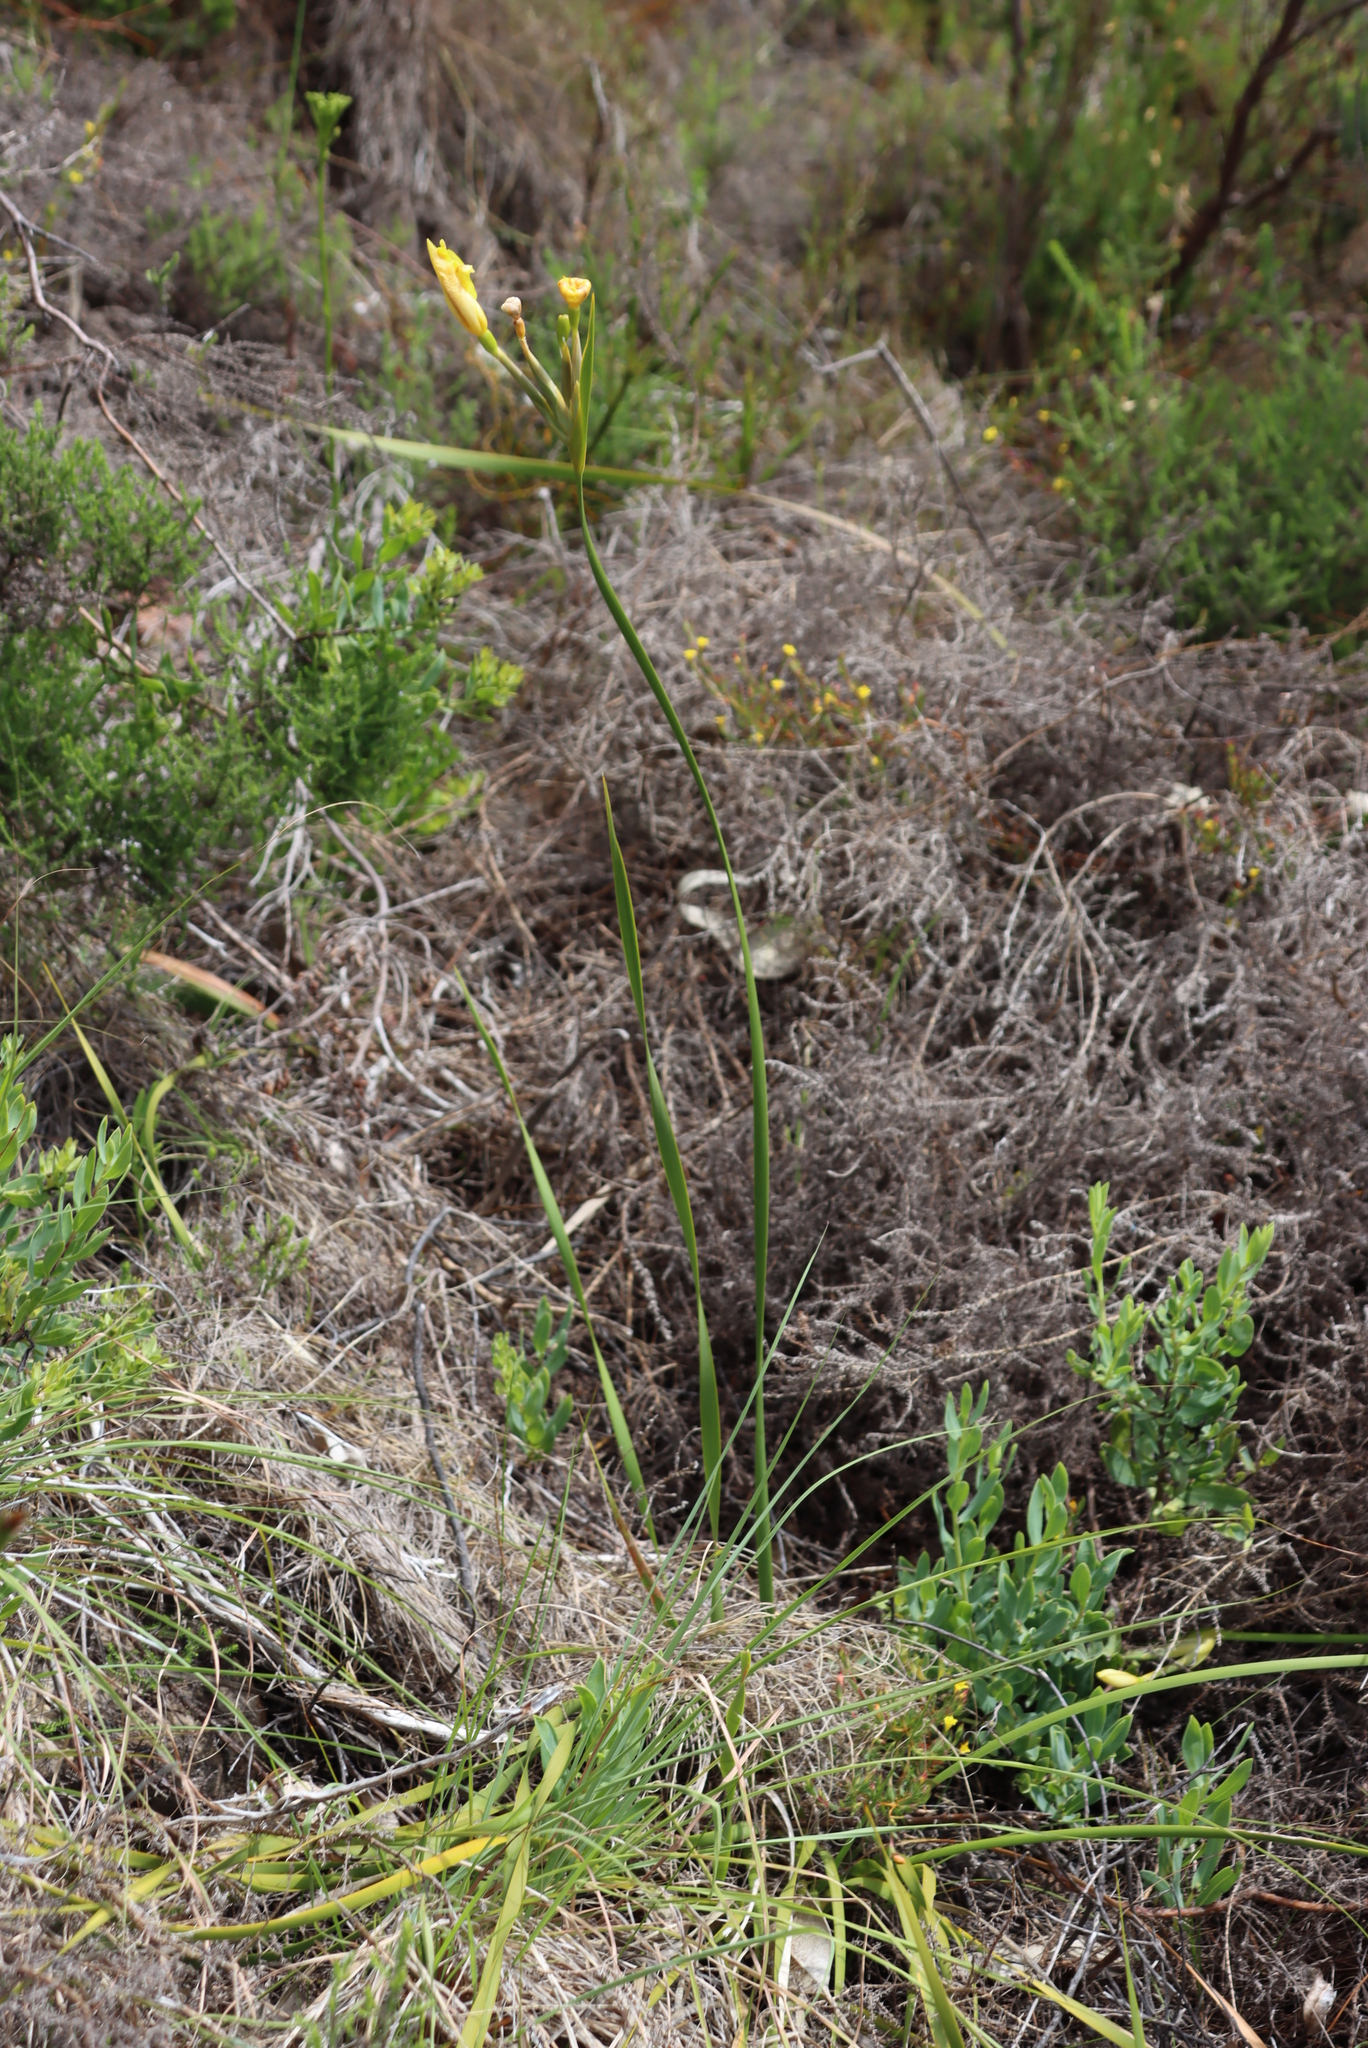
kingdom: Plantae
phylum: Tracheophyta
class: Liliopsida
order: Asparagales
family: Iridaceae
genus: Bobartia
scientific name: Bobartia gladiata
